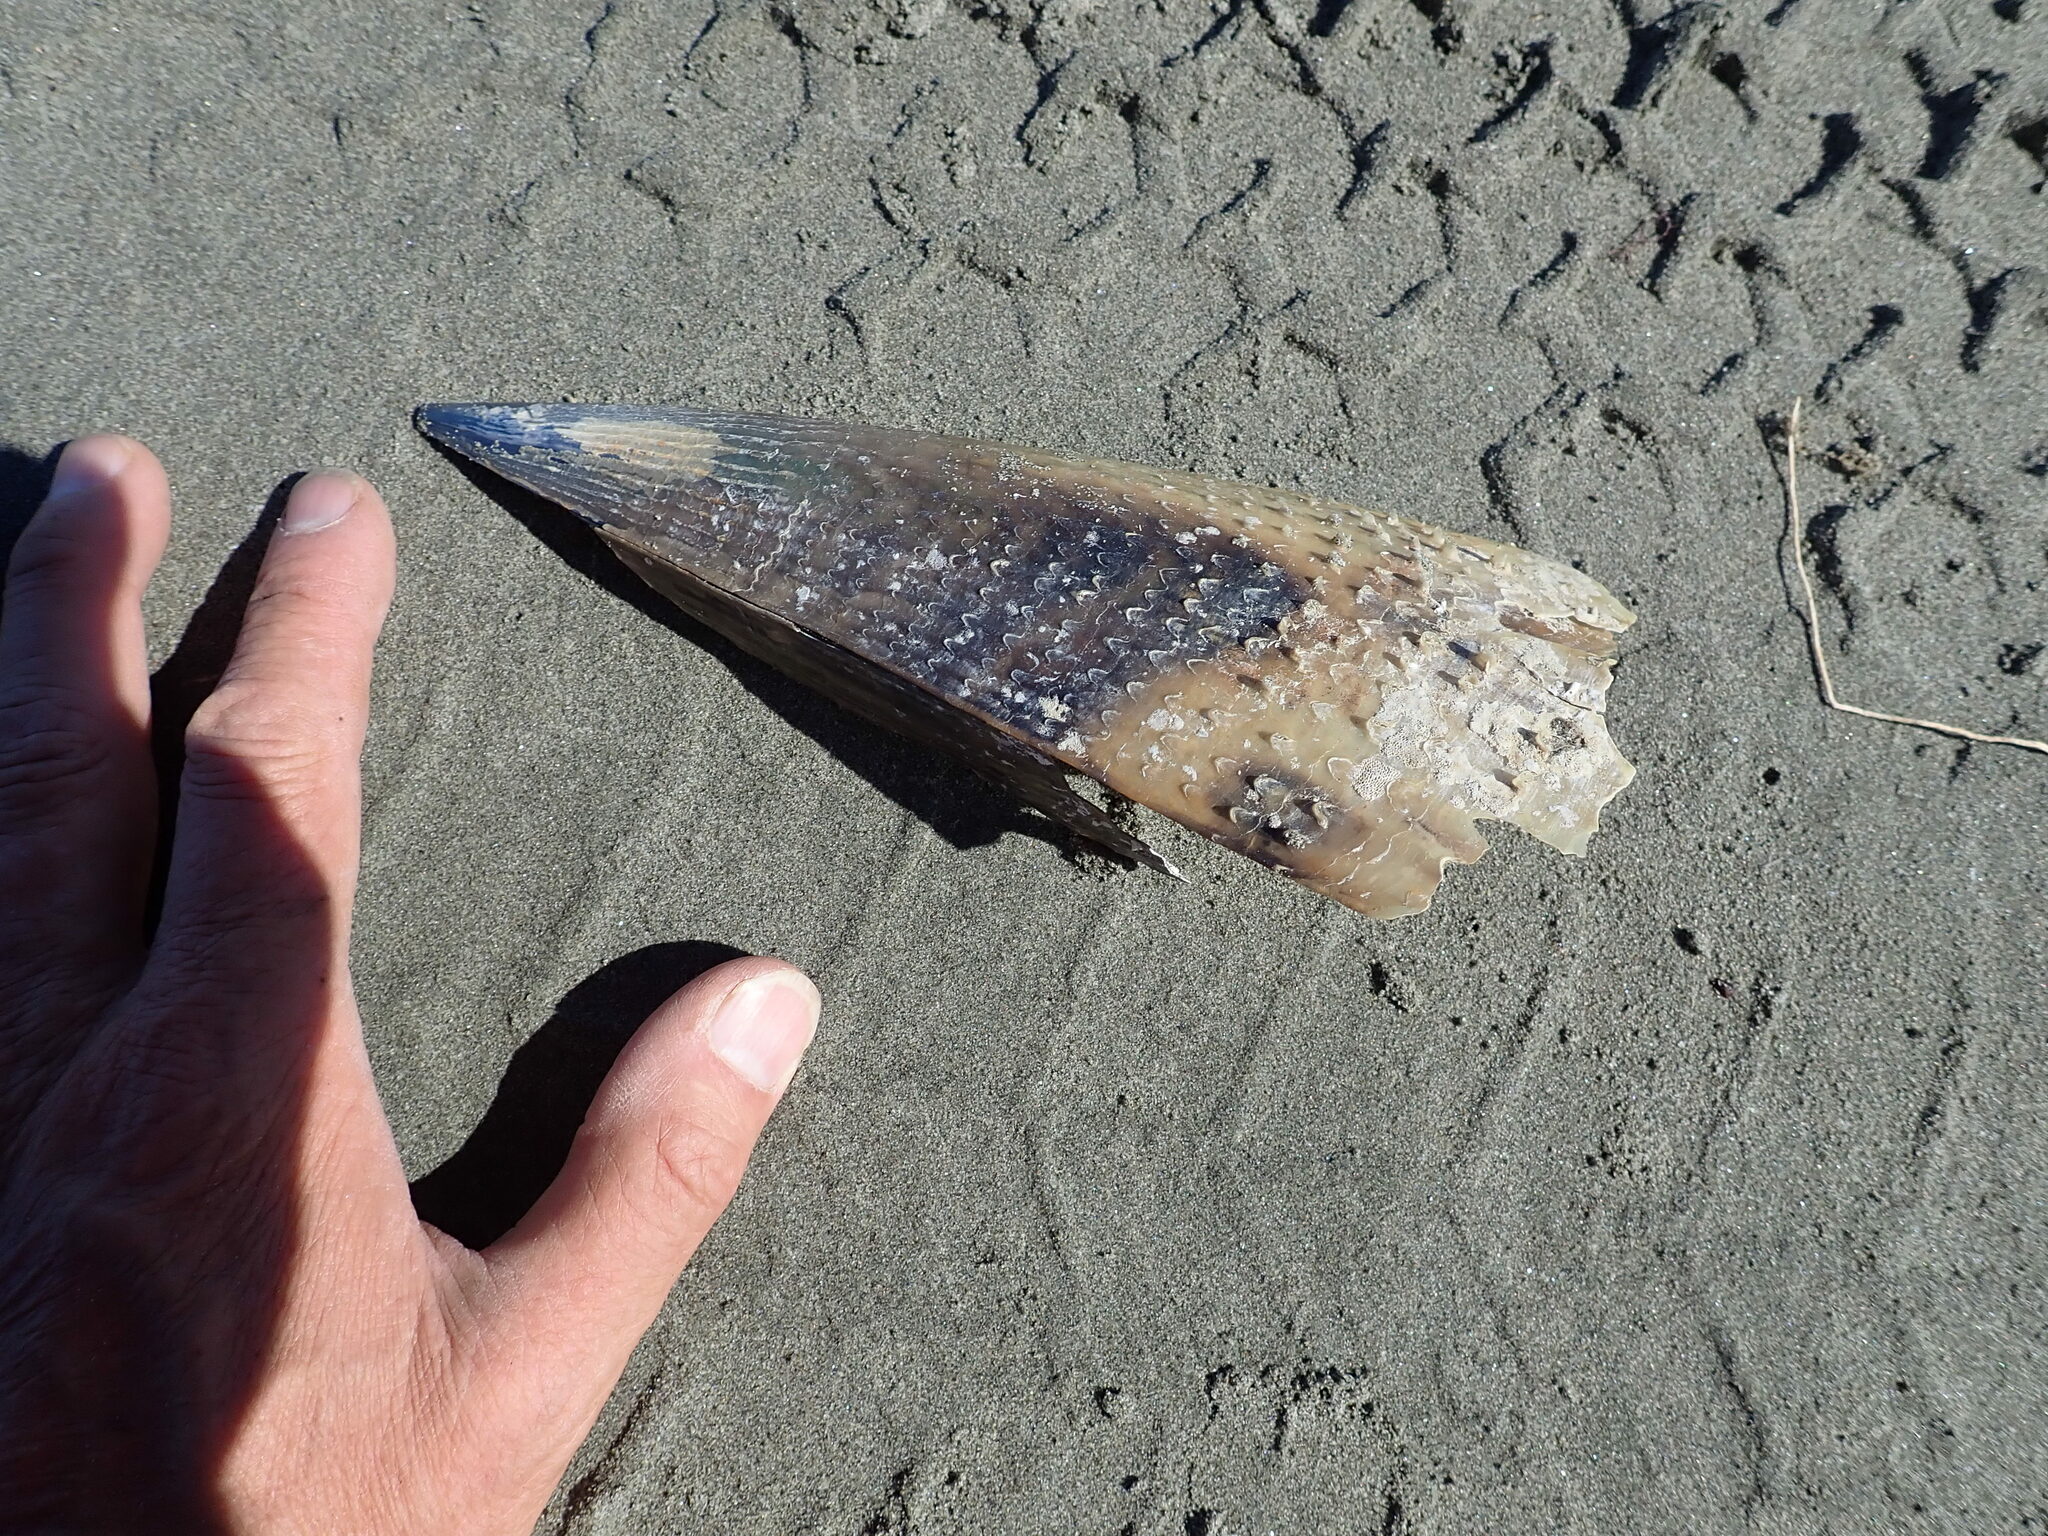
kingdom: Animalia
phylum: Mollusca
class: Bivalvia
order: Ostreida
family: Pinnidae
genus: Atrina
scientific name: Atrina zelandica
